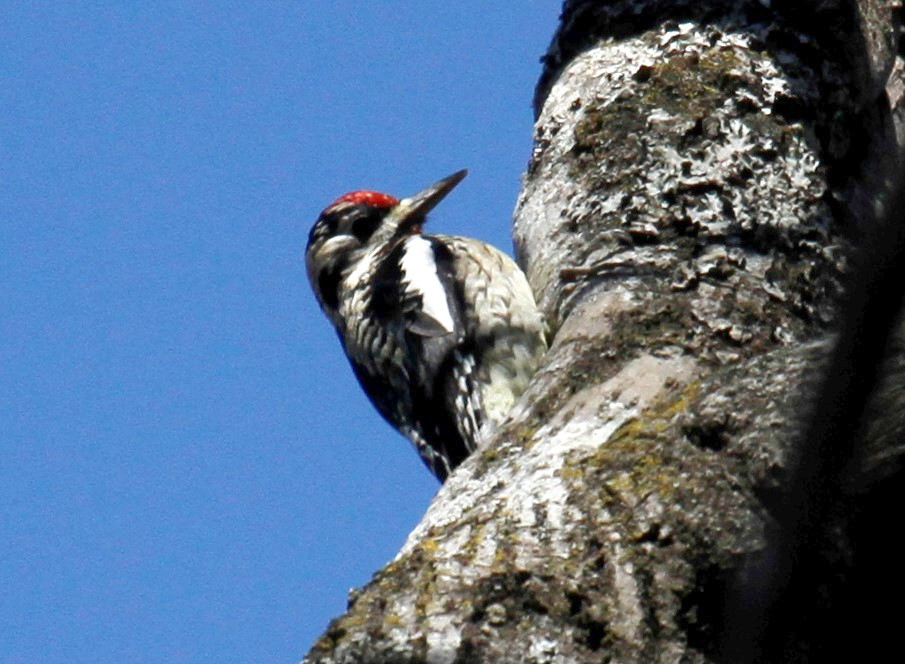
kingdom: Animalia
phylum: Chordata
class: Aves
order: Piciformes
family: Picidae
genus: Sphyrapicus
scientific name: Sphyrapicus varius
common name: Yellow-bellied sapsucker
